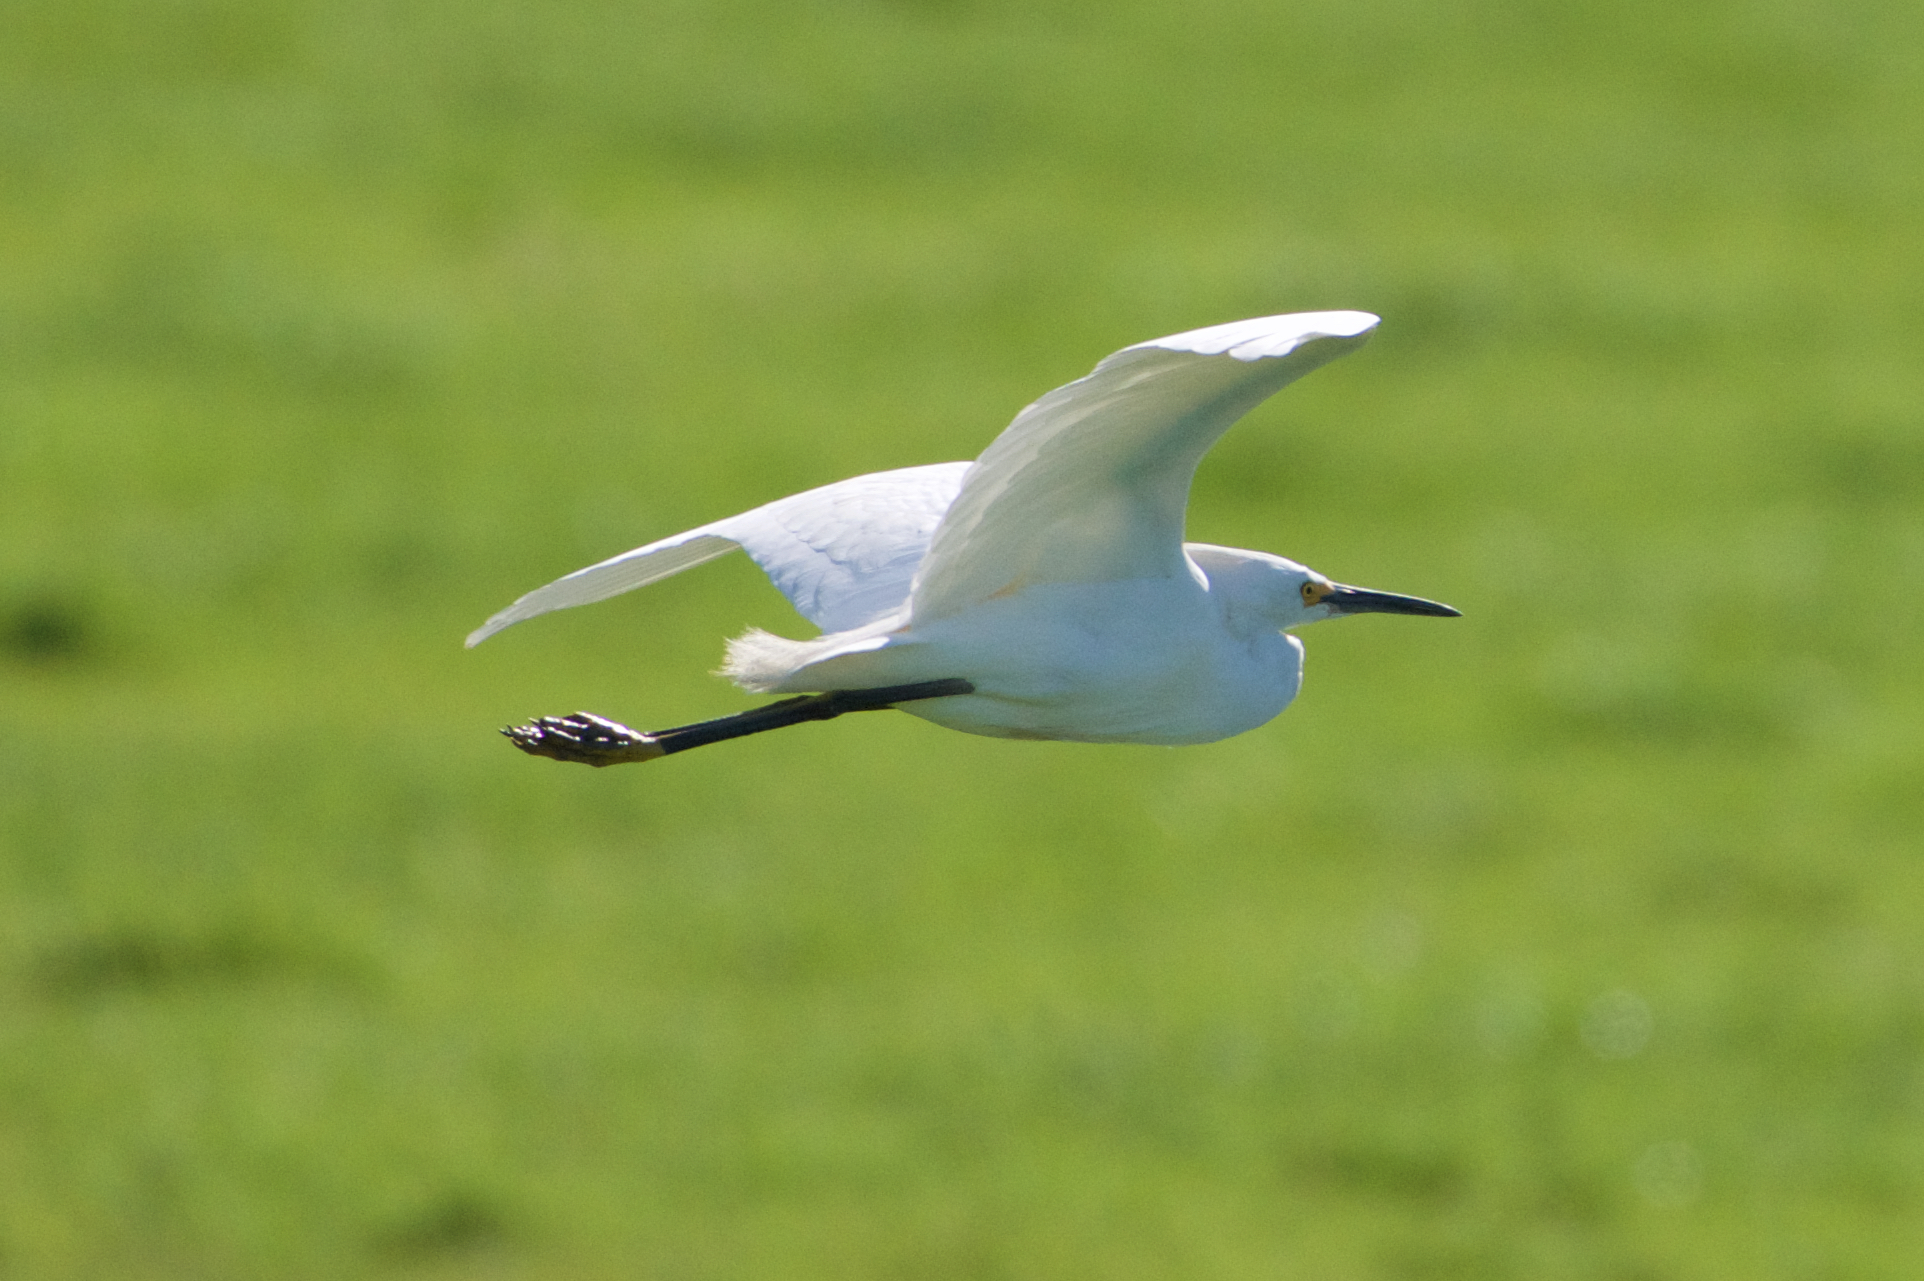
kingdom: Animalia
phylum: Chordata
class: Aves
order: Pelecaniformes
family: Ardeidae
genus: Egretta
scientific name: Egretta thula
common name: Snowy egret
